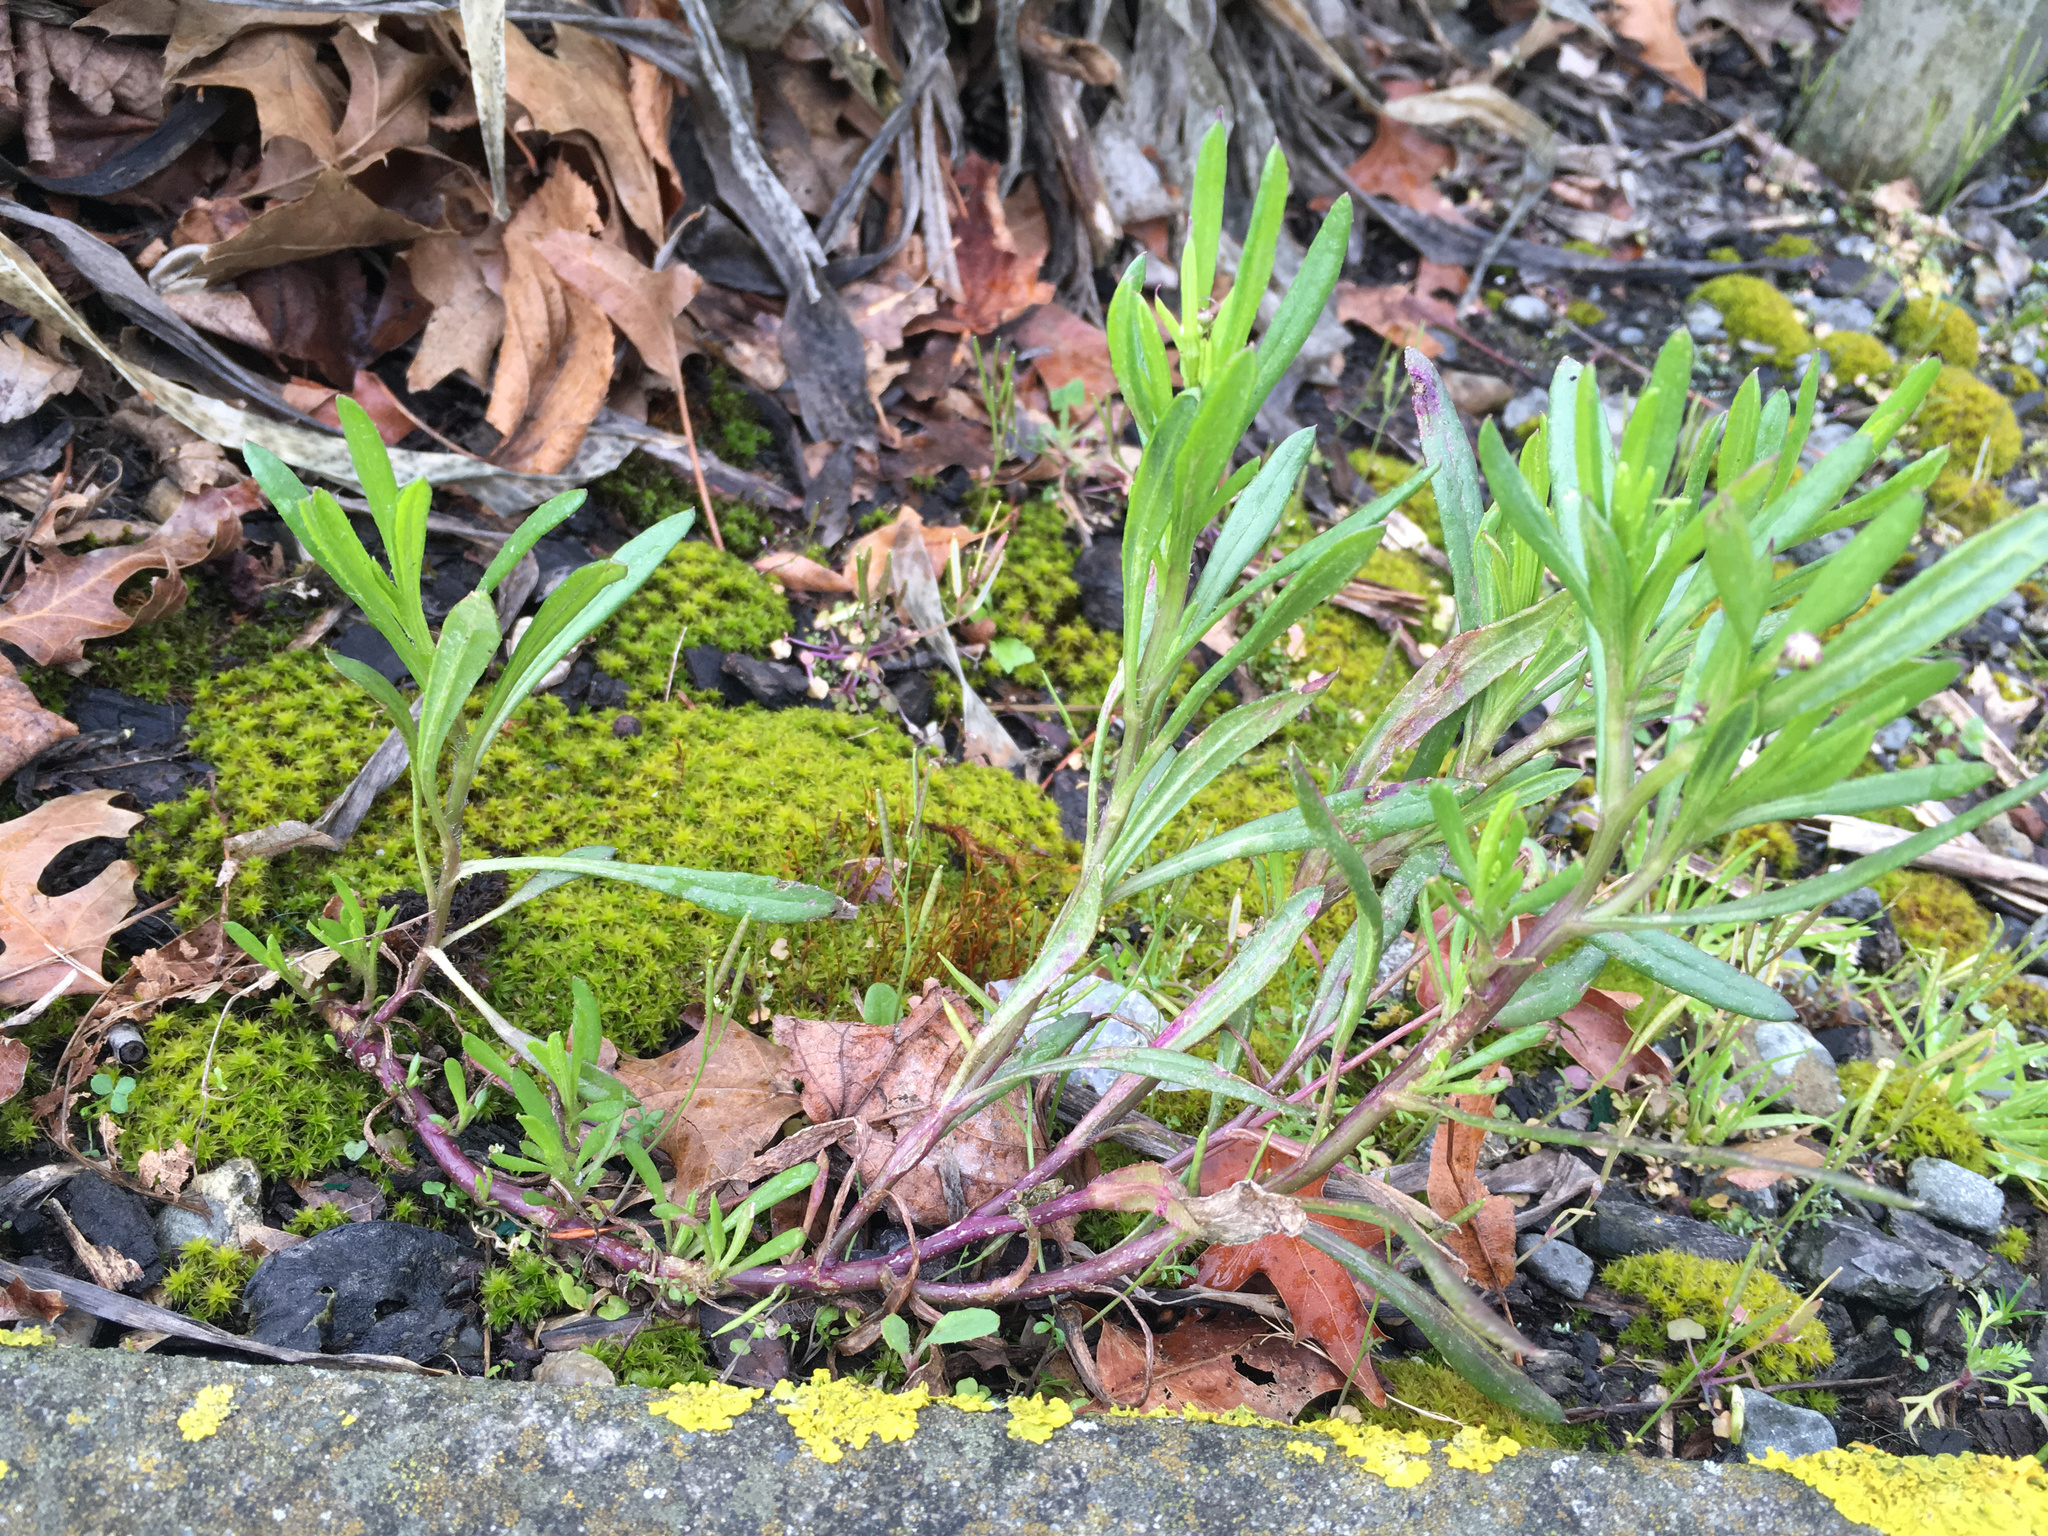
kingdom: Plantae
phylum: Tracheophyta
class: Magnoliopsida
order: Asterales
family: Asteraceae
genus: Senecio
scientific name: Senecio skirrhodon
